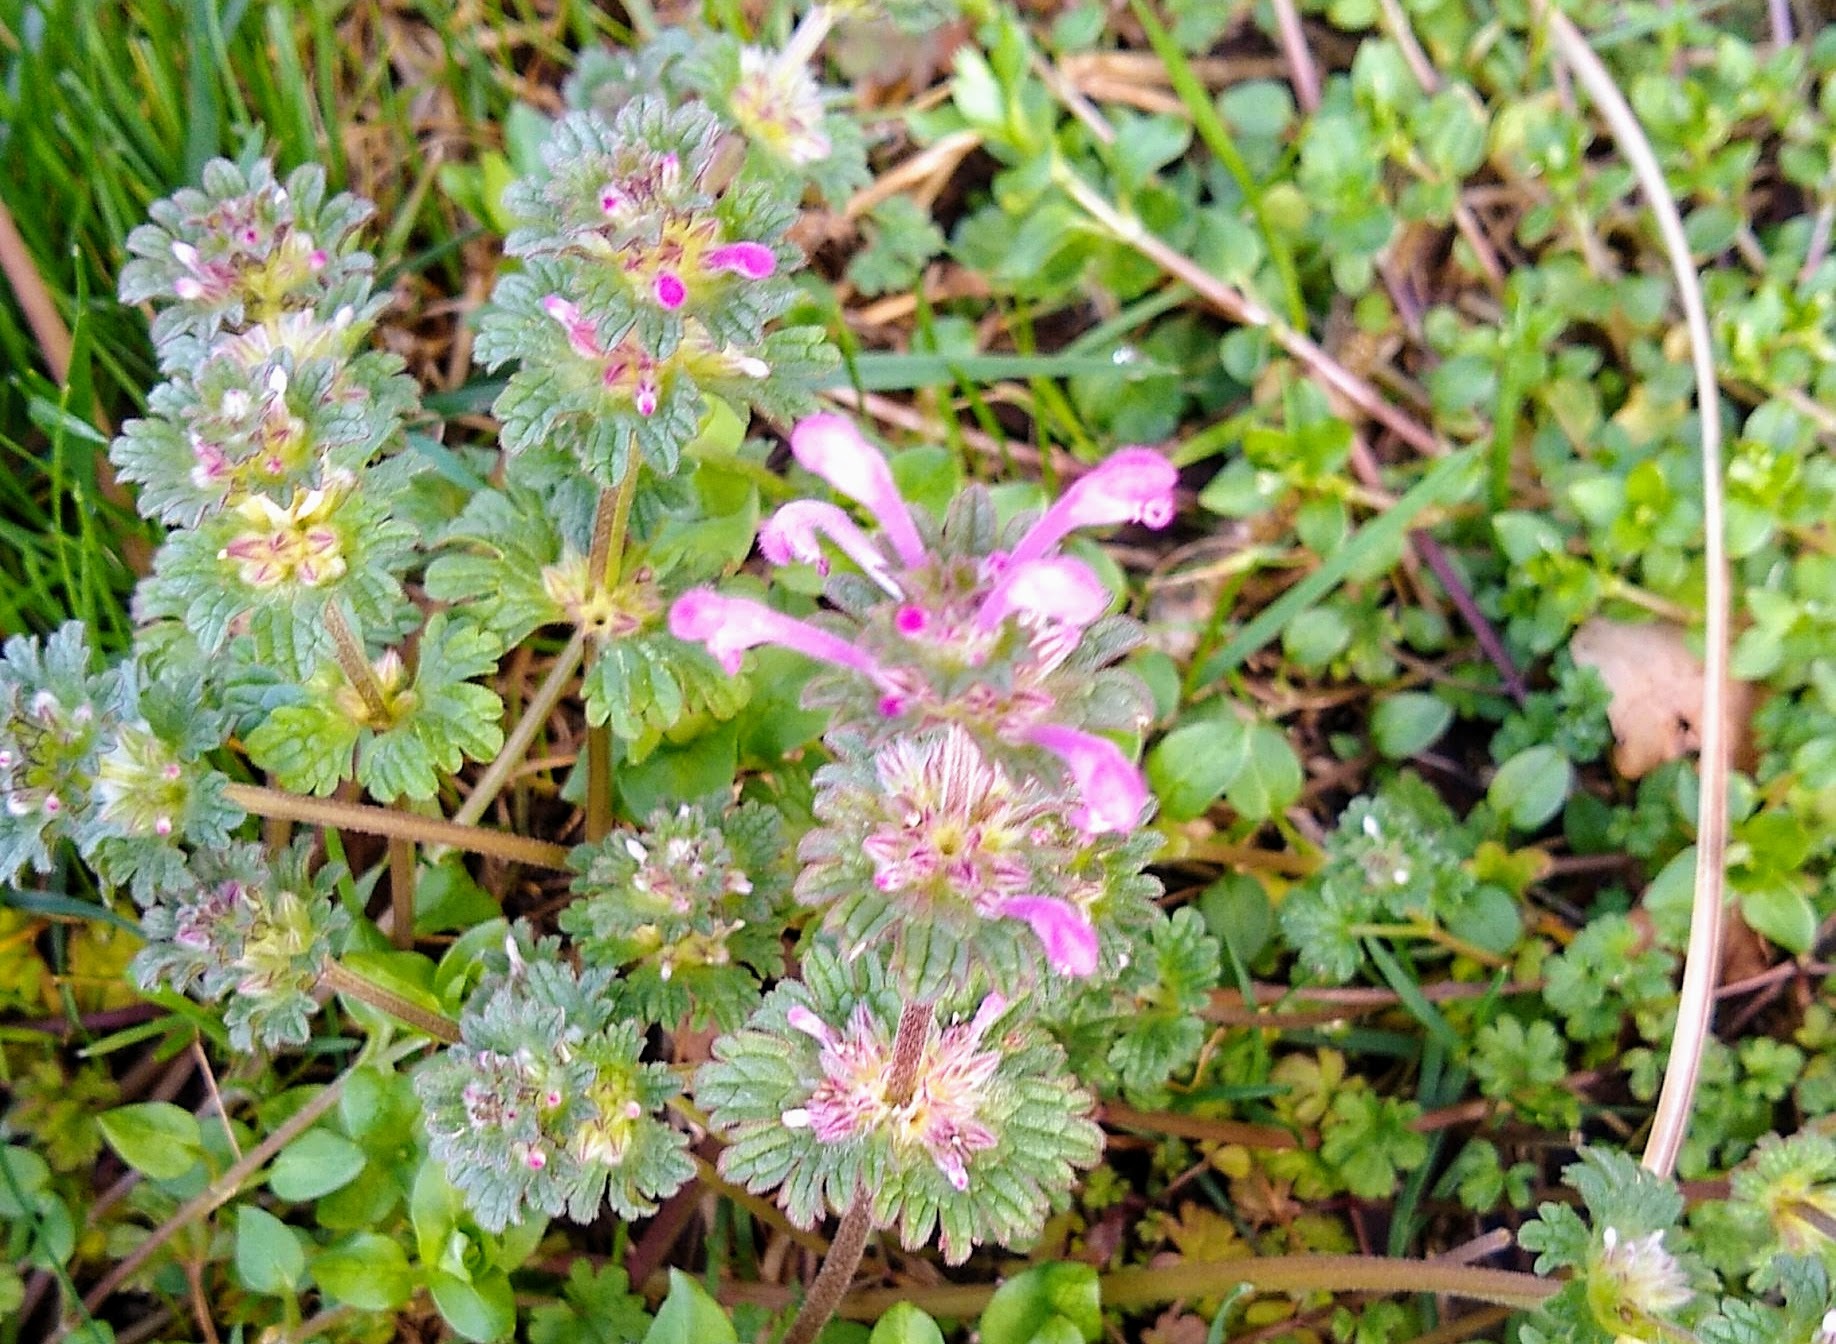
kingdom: Plantae
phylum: Tracheophyta
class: Magnoliopsida
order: Lamiales
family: Lamiaceae
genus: Lamium
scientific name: Lamium amplexicaule
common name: Henbit dead-nettle
